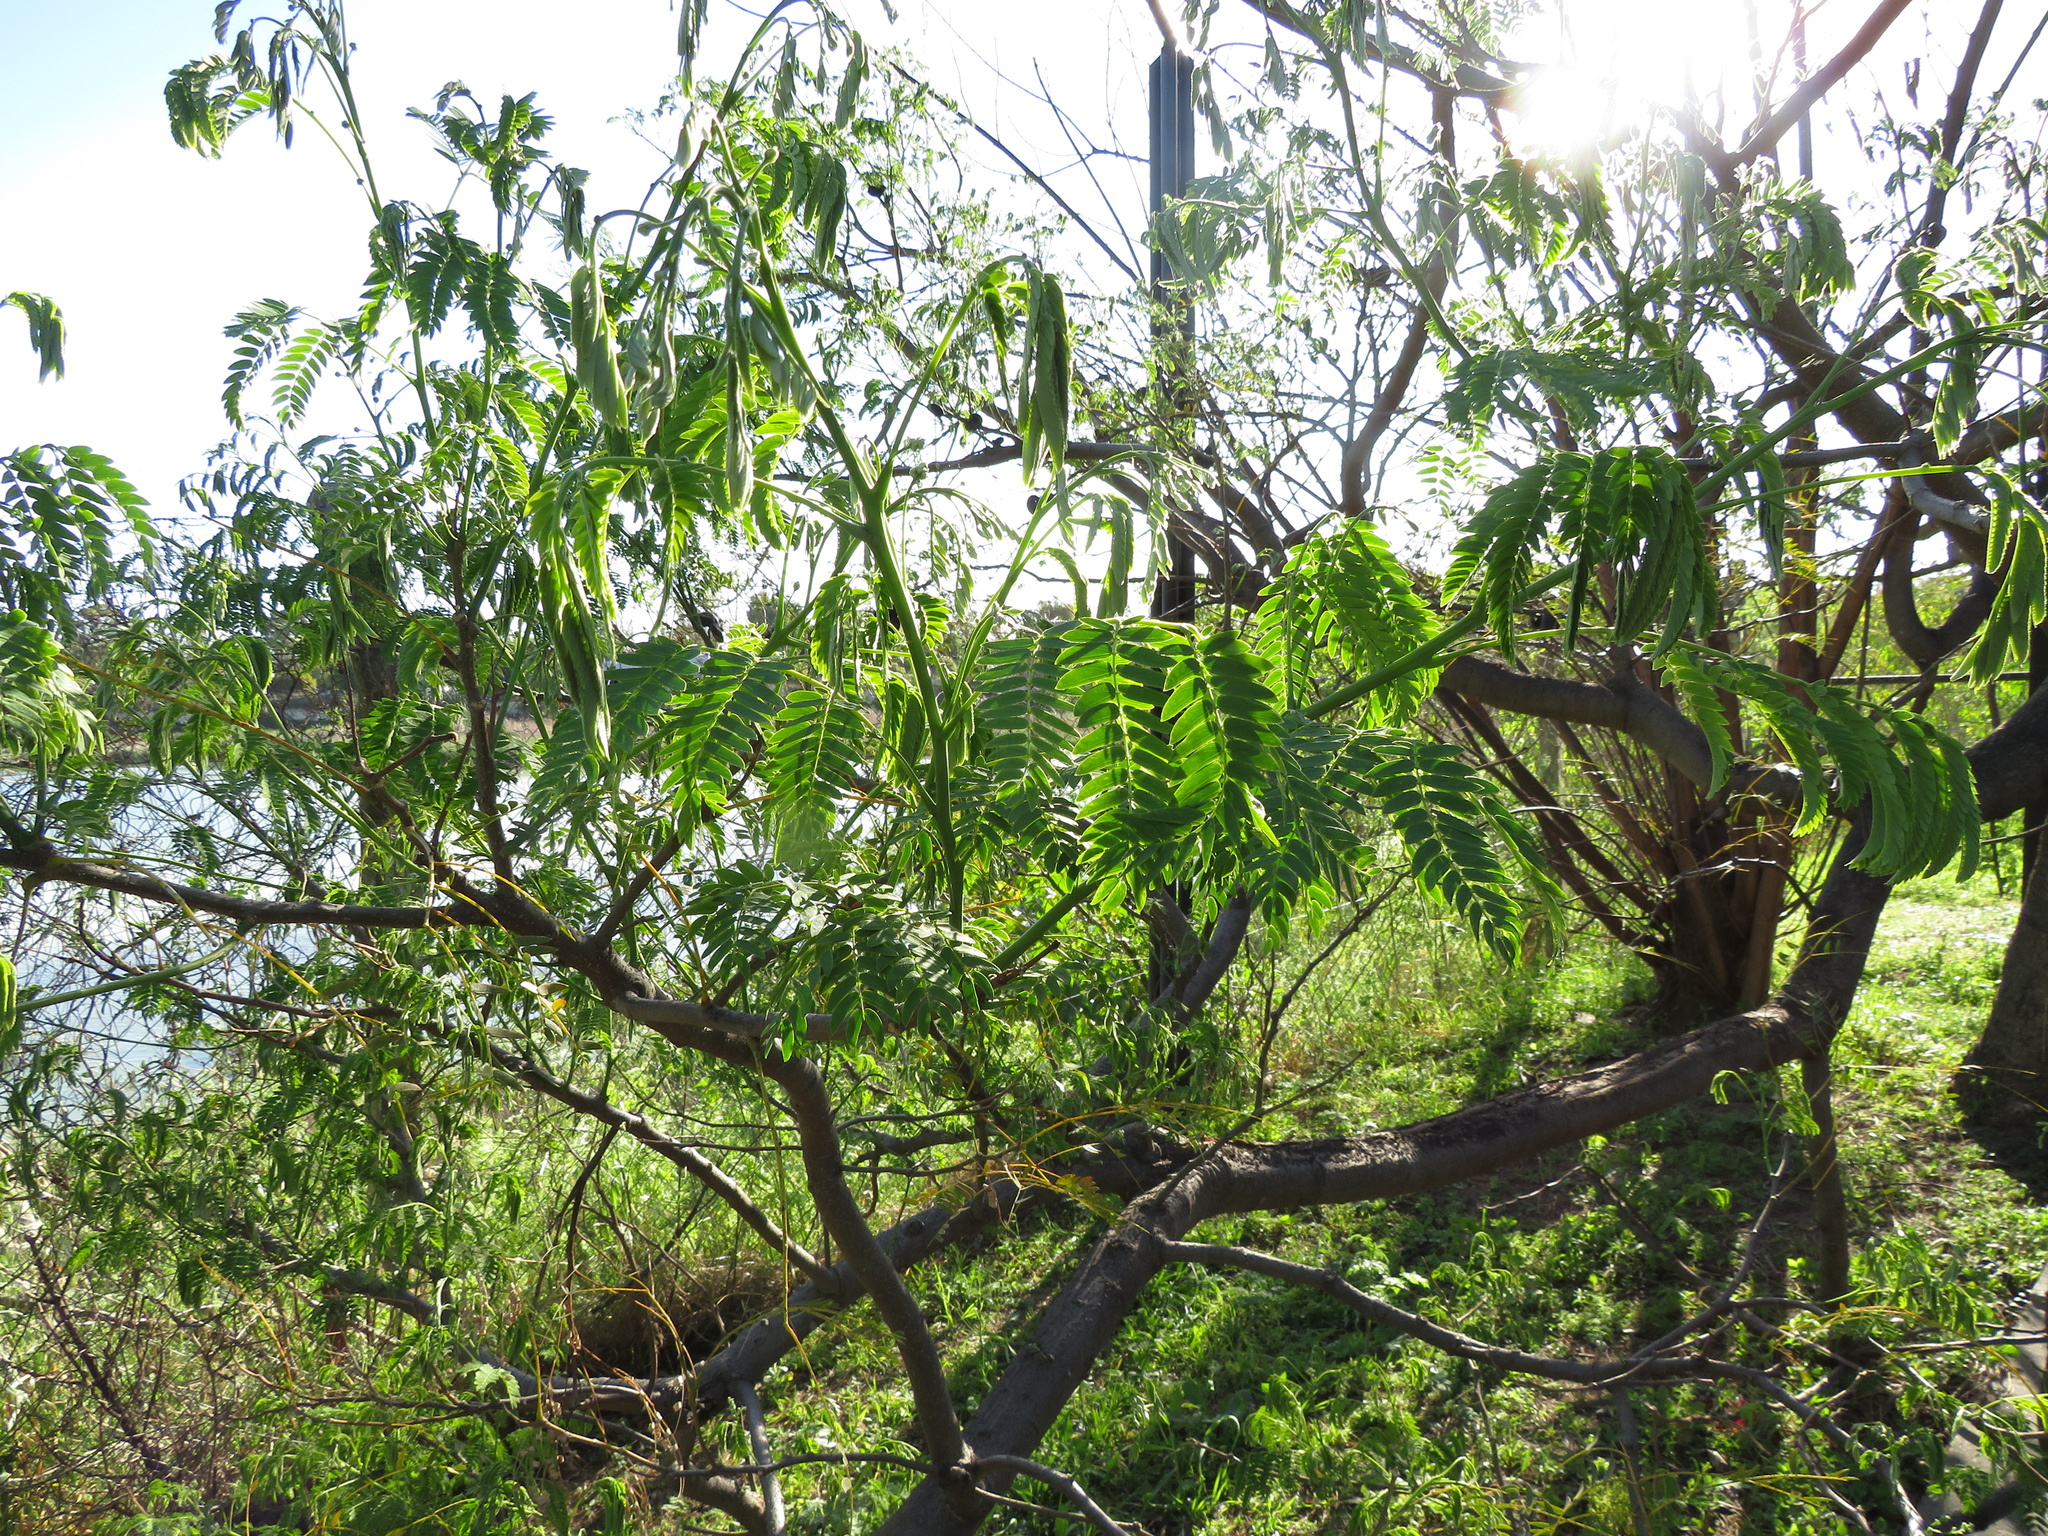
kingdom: Plantae
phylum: Tracheophyta
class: Magnoliopsida
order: Fabales
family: Fabaceae
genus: Enterolobium
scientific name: Enterolobium contortisiliquum
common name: Pacara earpod tree
